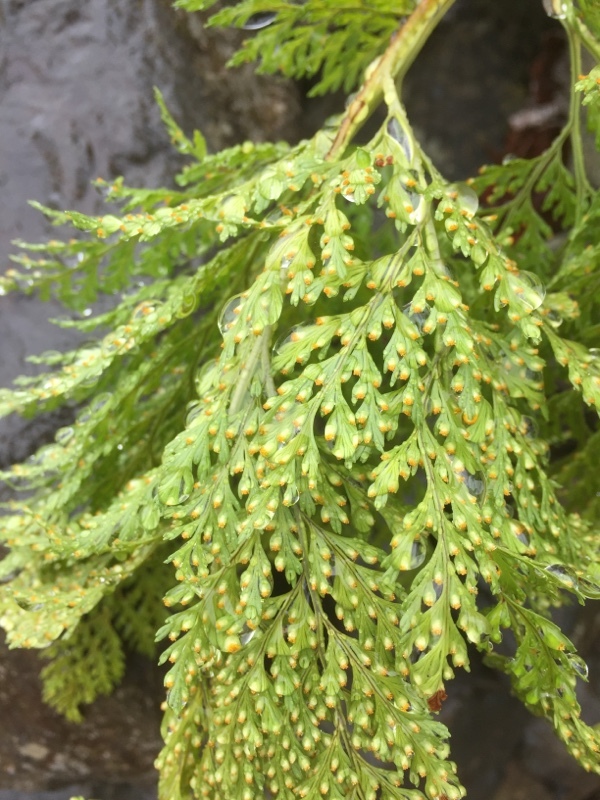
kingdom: Plantae
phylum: Tracheophyta
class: Polypodiopsida
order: Polypodiales
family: Davalliaceae
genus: Davallia
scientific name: Davallia canariensis
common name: Hare's-foot fern
